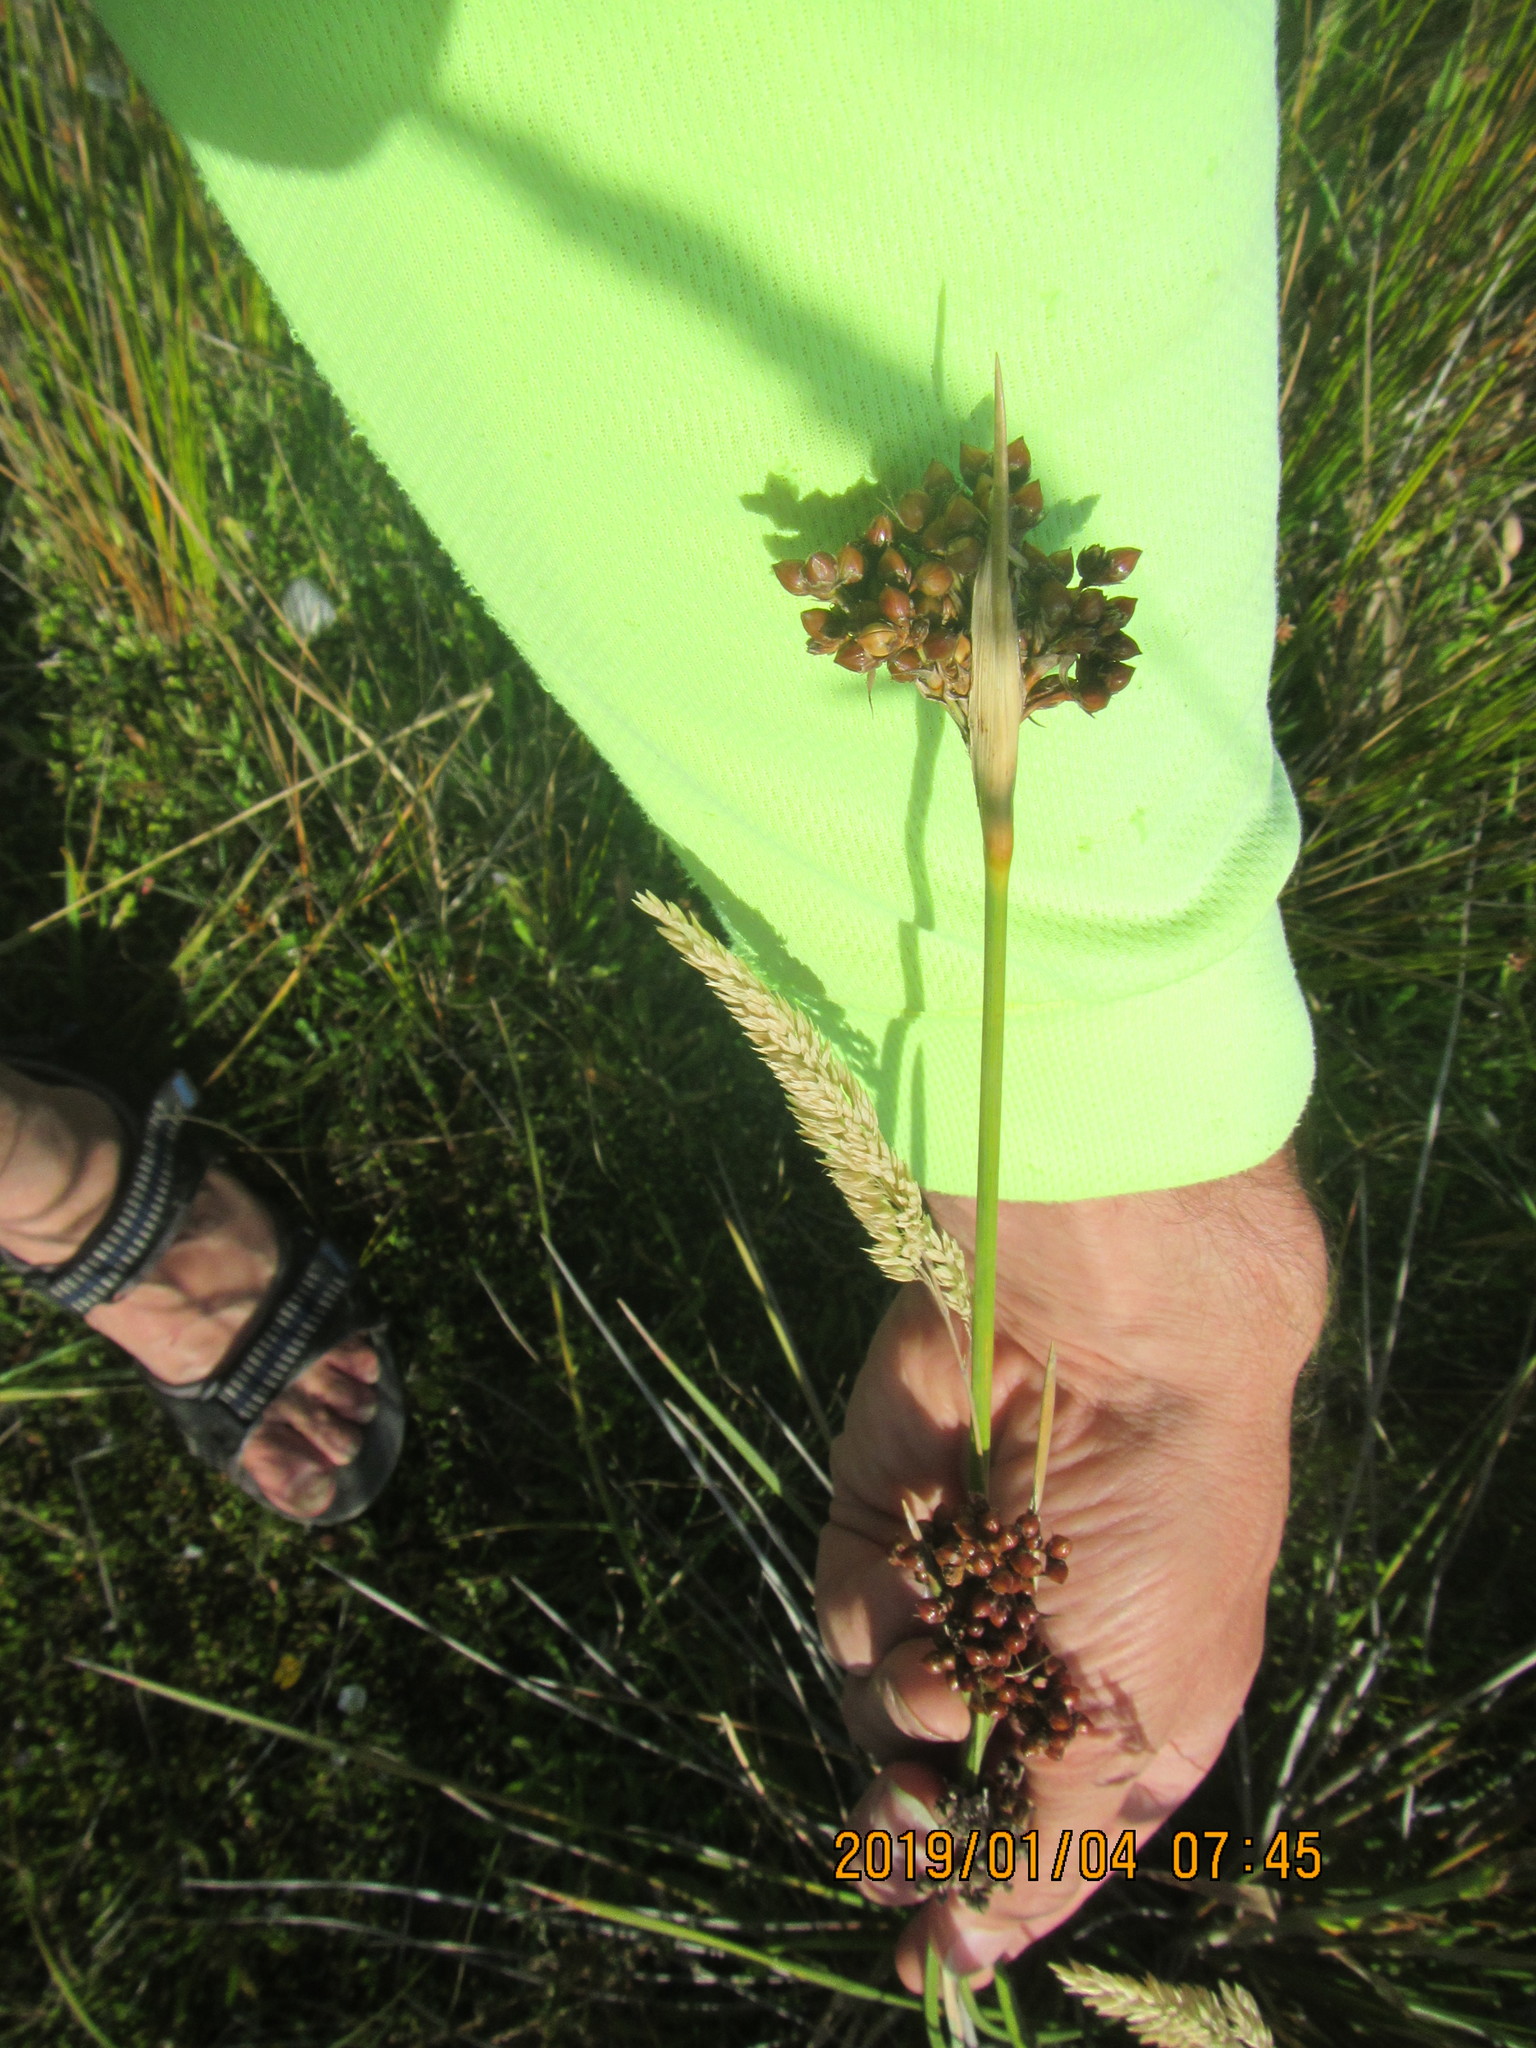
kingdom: Plantae
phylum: Tracheophyta
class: Liliopsida
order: Poales
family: Juncaceae
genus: Juncus
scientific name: Juncus acutus
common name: Sharp rush
